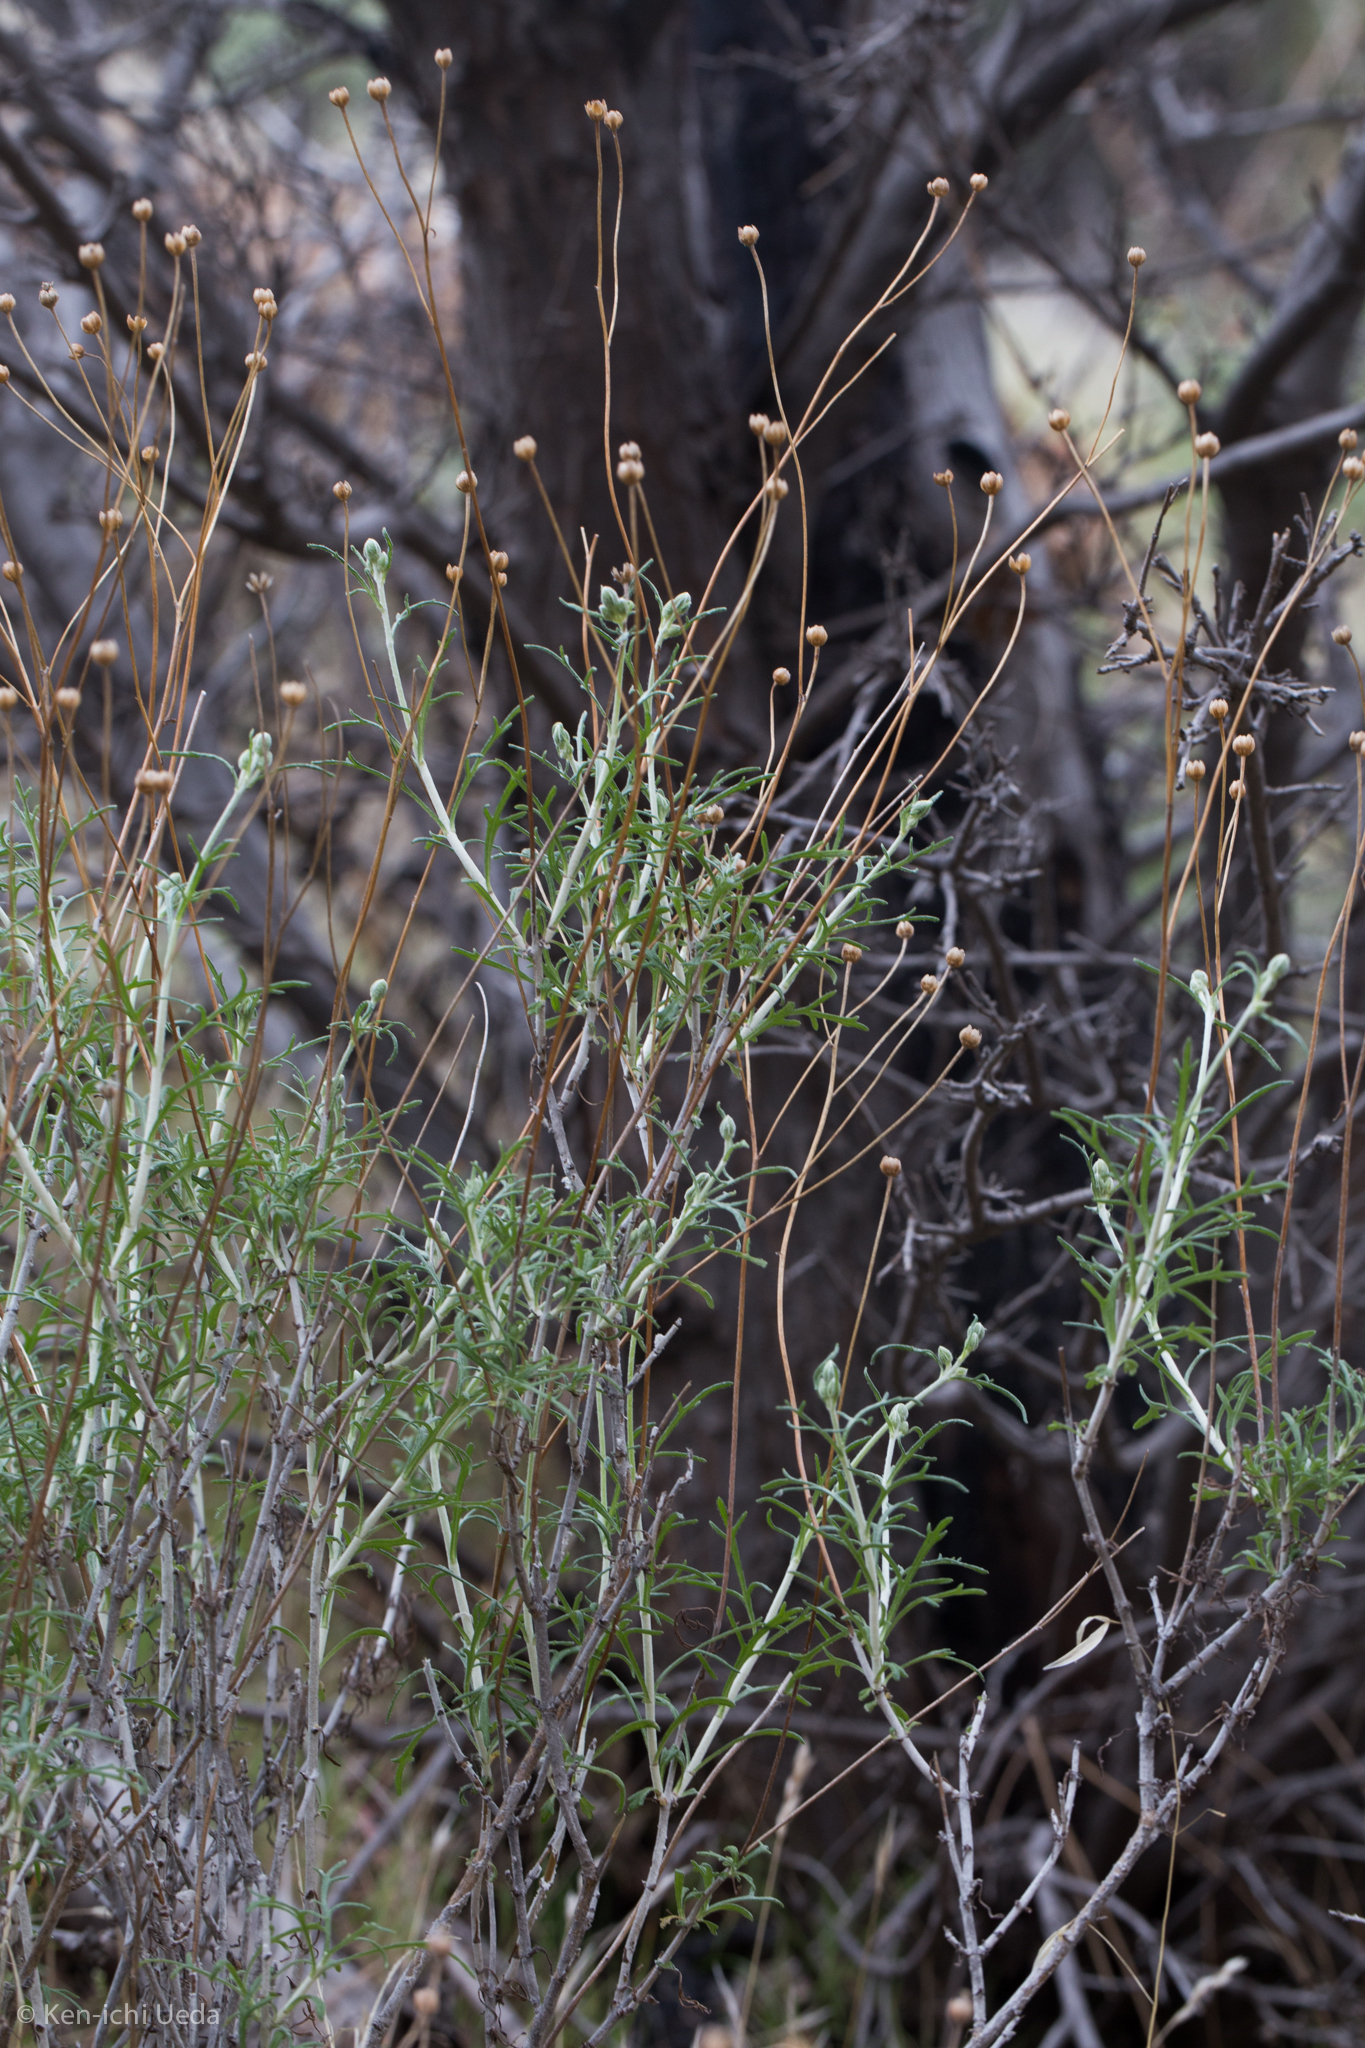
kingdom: Plantae
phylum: Tracheophyta
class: Magnoliopsida
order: Asterales
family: Asteraceae
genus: Eriophyllum
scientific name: Eriophyllum jepsonii
